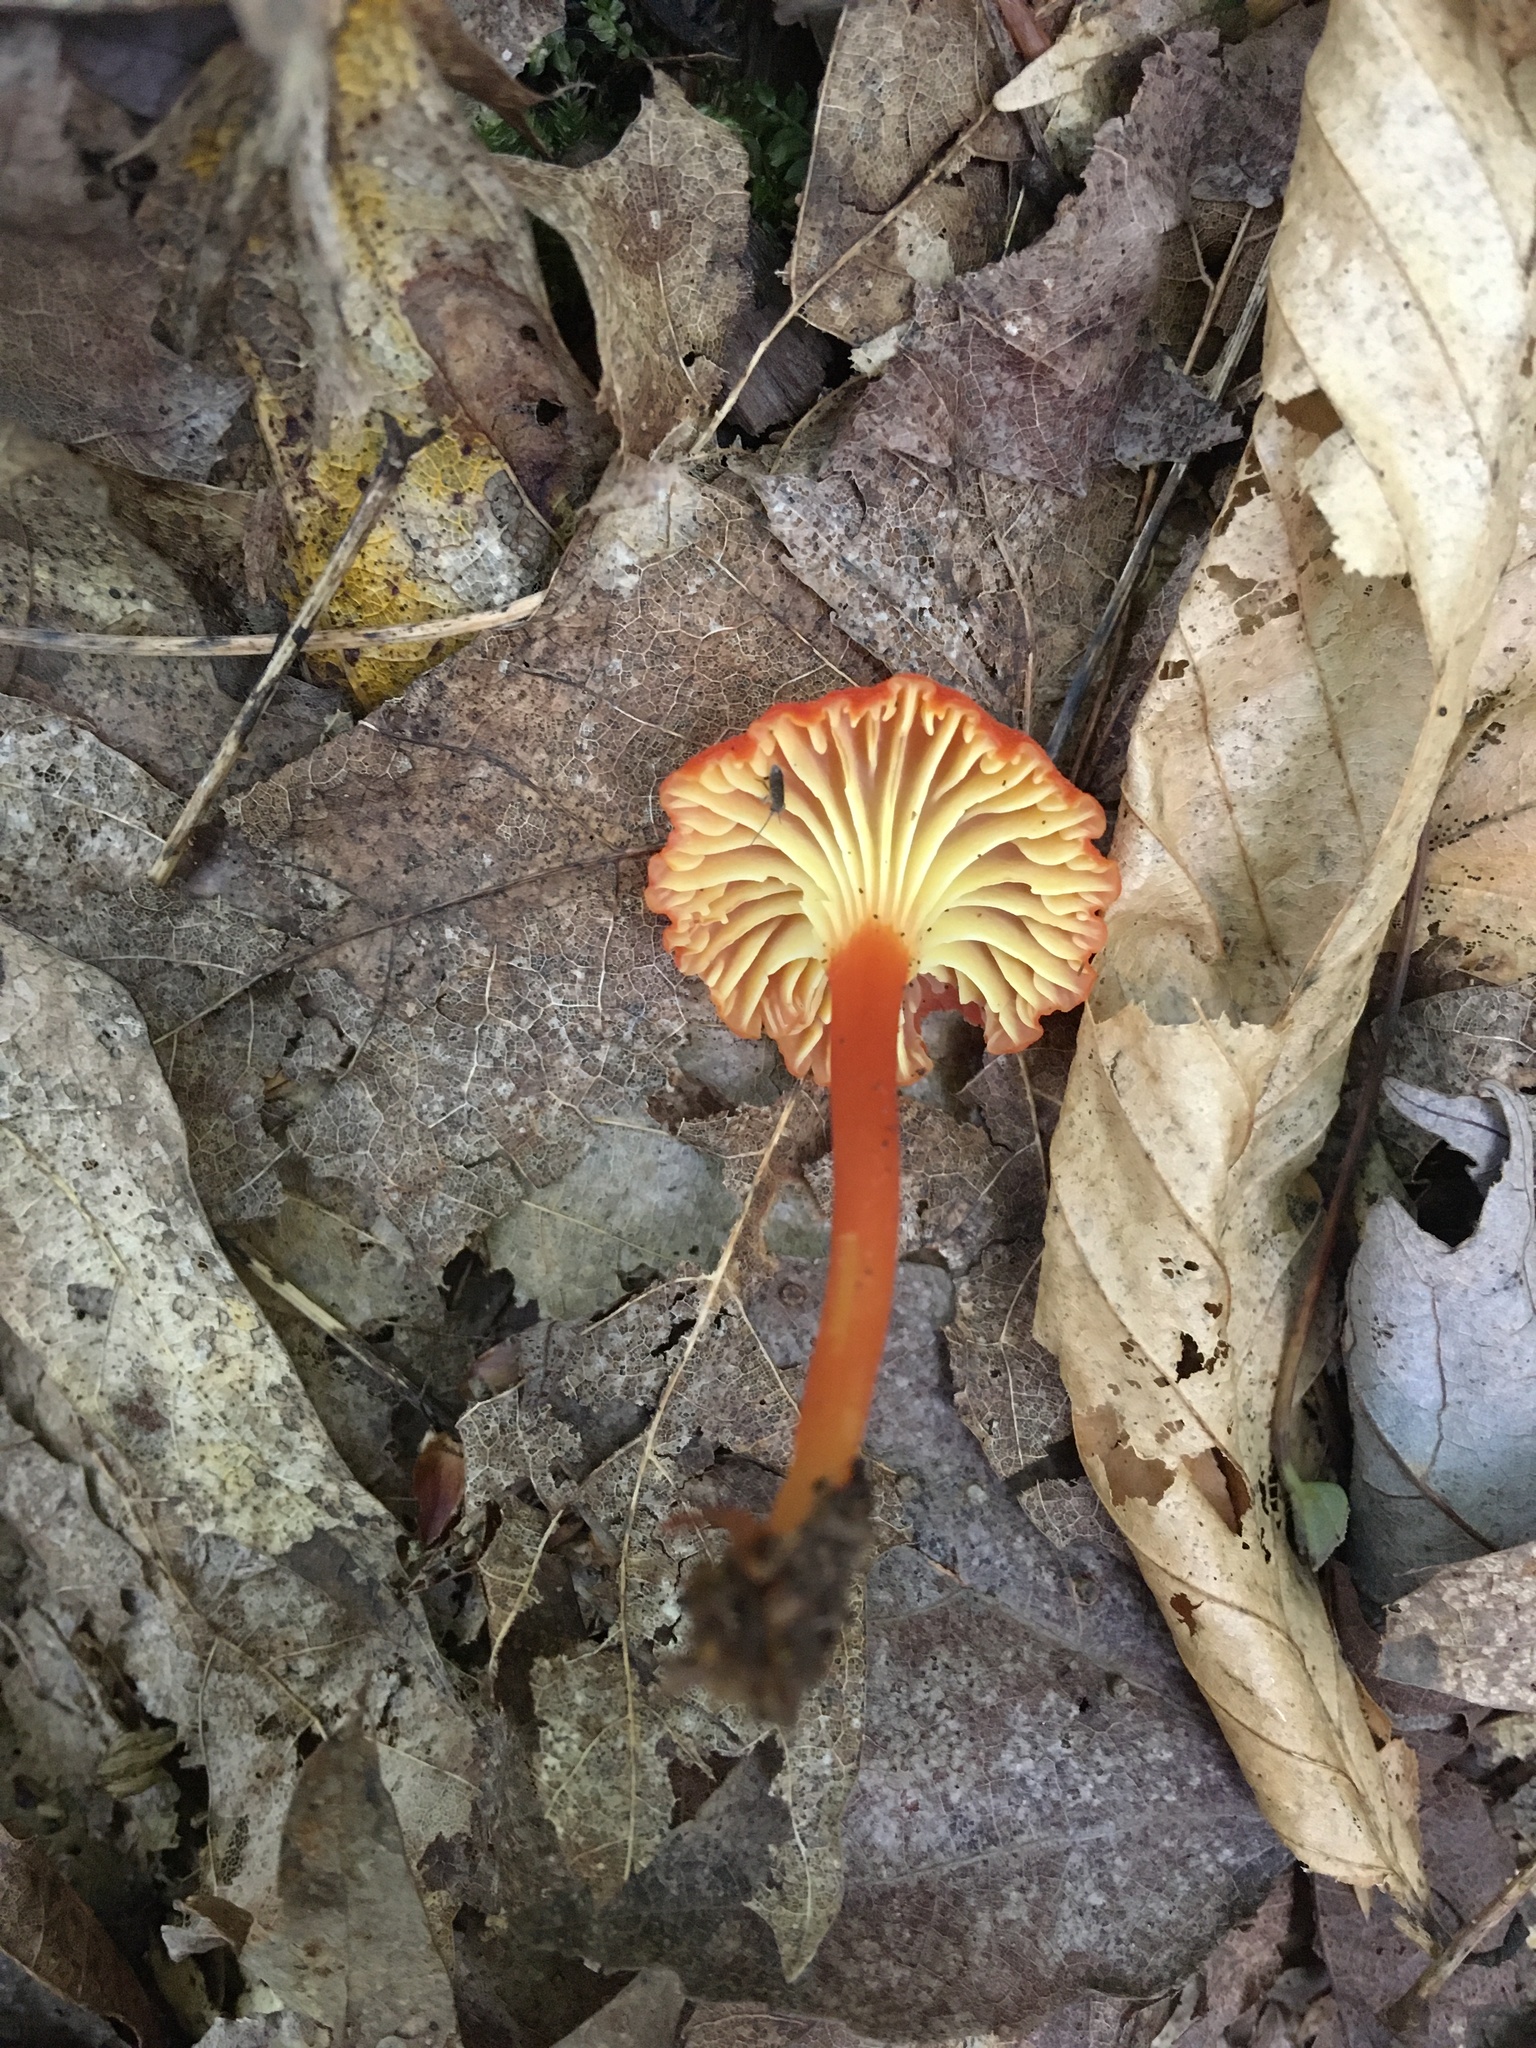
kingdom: Fungi
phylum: Basidiomycota
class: Agaricomycetes
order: Agaricales
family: Hygrophoraceae
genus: Hygrocybe
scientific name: Hygrocybe cantharellus
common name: Goblet waxcap
